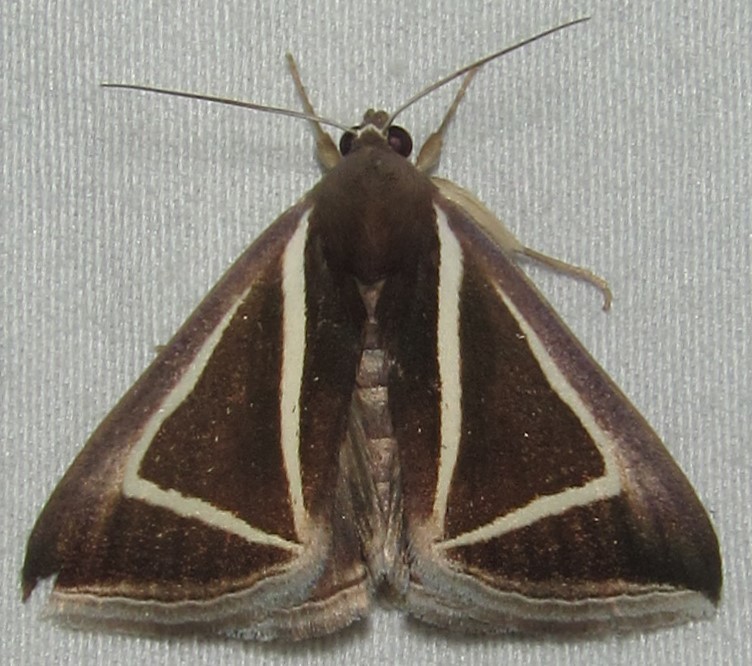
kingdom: Animalia
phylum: Arthropoda
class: Insecta
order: Lepidoptera
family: Erebidae
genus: Chalciope
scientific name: Chalciope delta
